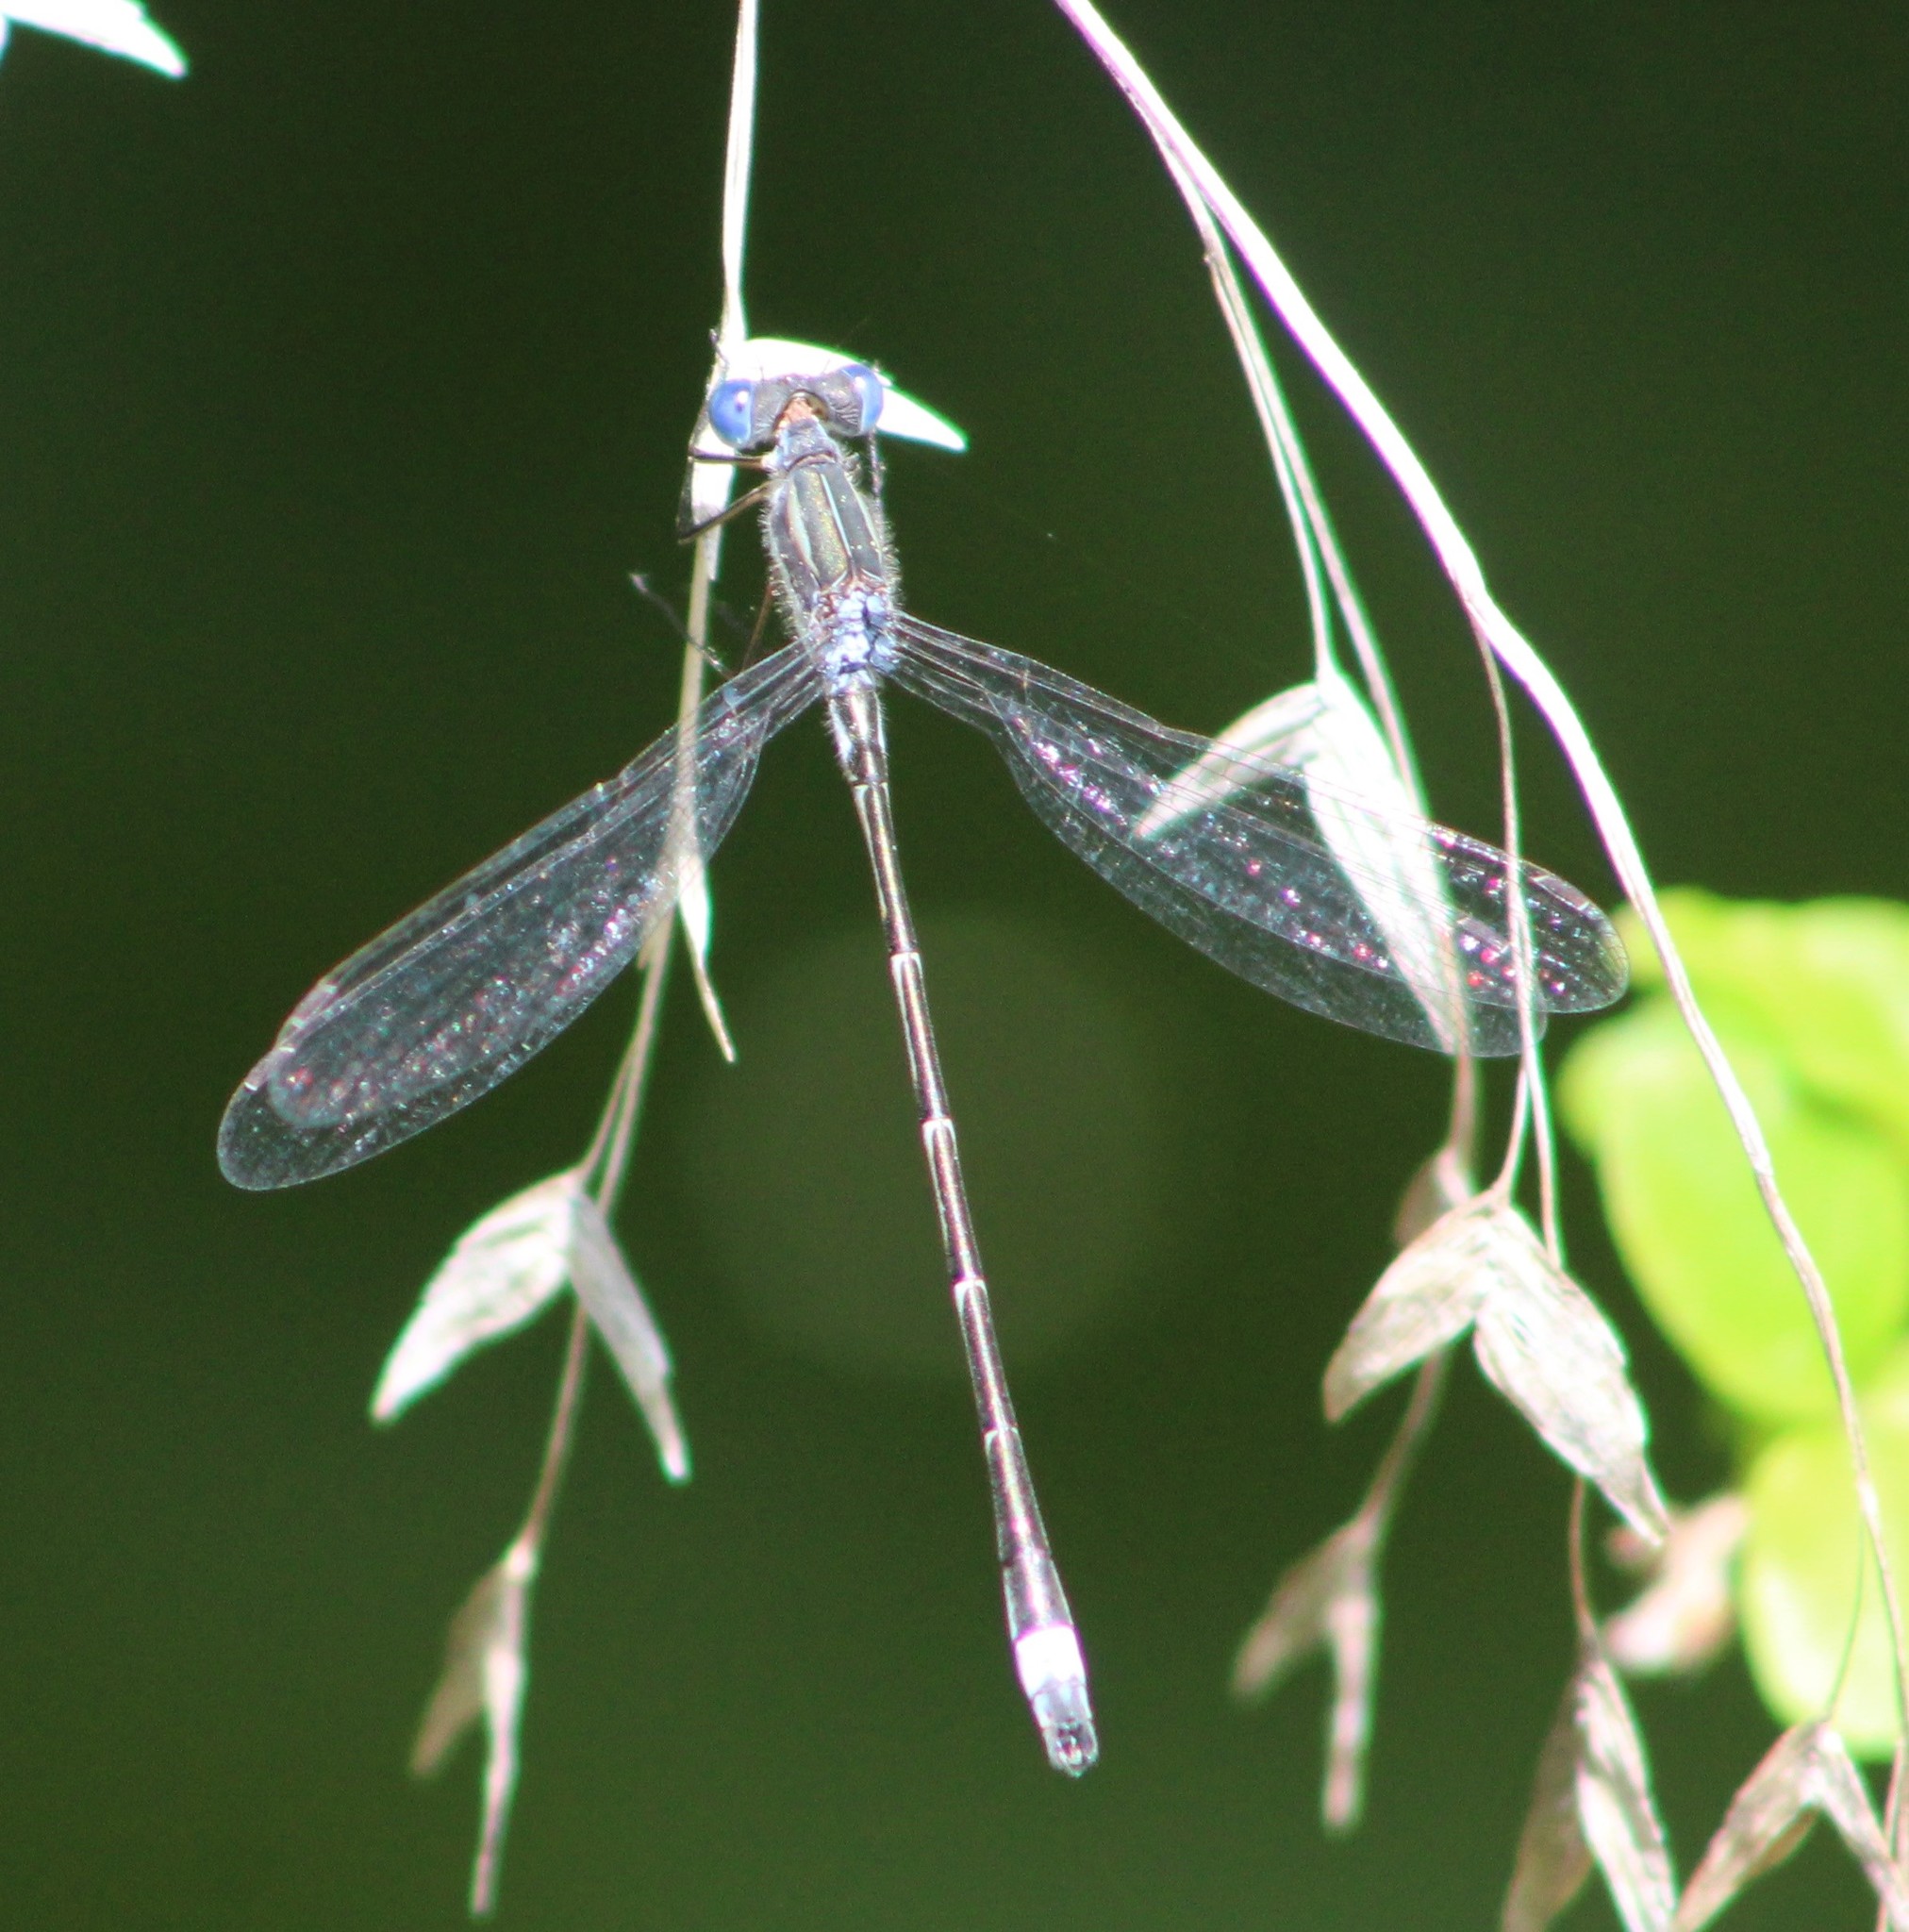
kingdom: Animalia
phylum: Arthropoda
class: Insecta
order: Odonata
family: Lestidae
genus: Lestes
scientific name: Lestes australis
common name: Southern spreadwing
